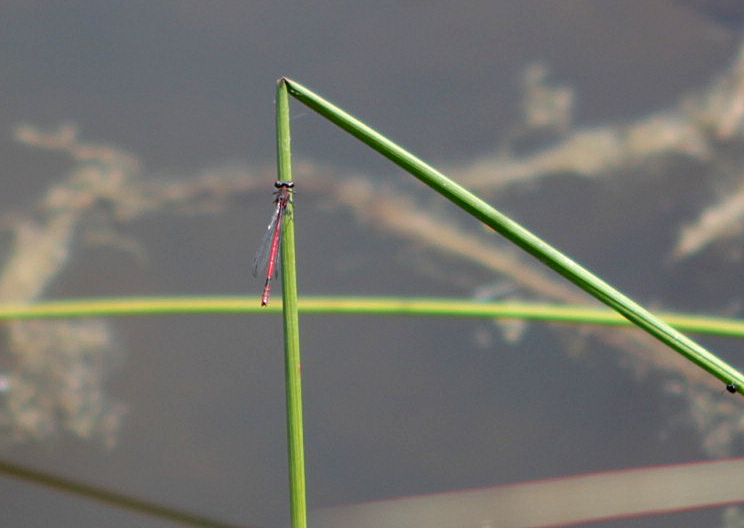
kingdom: Animalia
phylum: Arthropoda
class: Insecta
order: Odonata
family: Coenagrionidae
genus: Pyrrhosoma
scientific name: Pyrrhosoma nymphula
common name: Large red damsel
